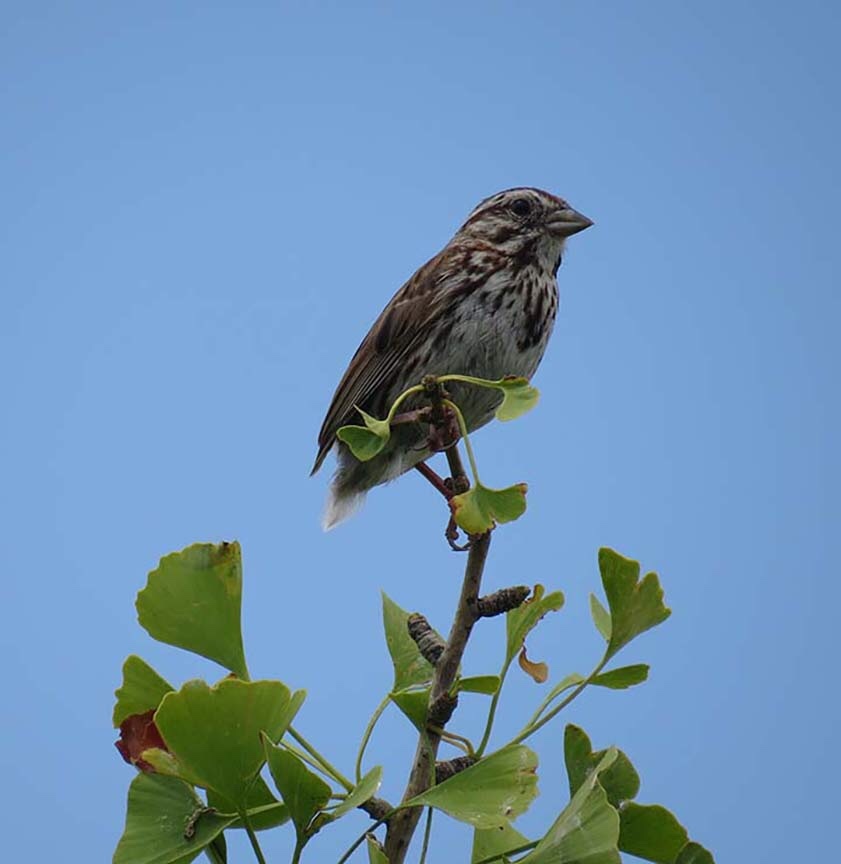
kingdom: Animalia
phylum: Chordata
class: Aves
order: Passeriformes
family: Passerellidae
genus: Melospiza
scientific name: Melospiza melodia
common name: Song sparrow
